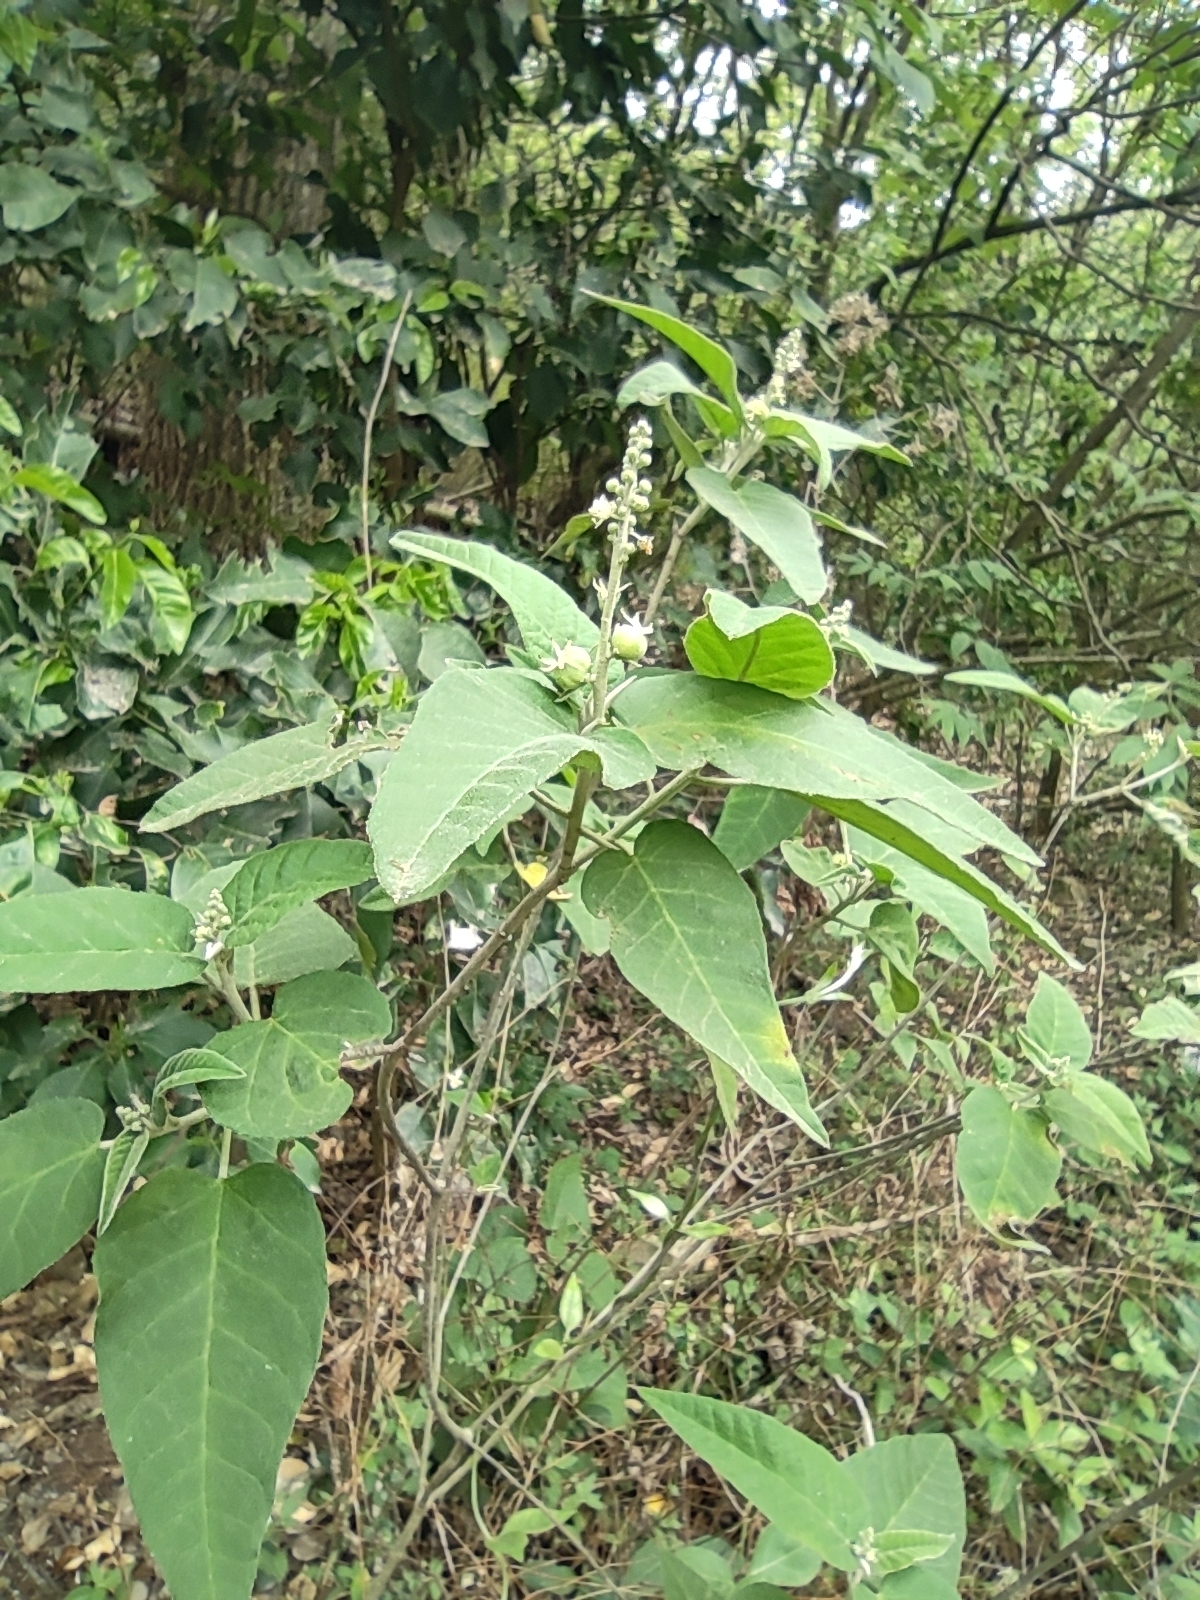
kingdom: Plantae
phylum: Tracheophyta
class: Magnoliopsida
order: Malpighiales
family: Euphorbiaceae
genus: Croton
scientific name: Croton fruticulosus
